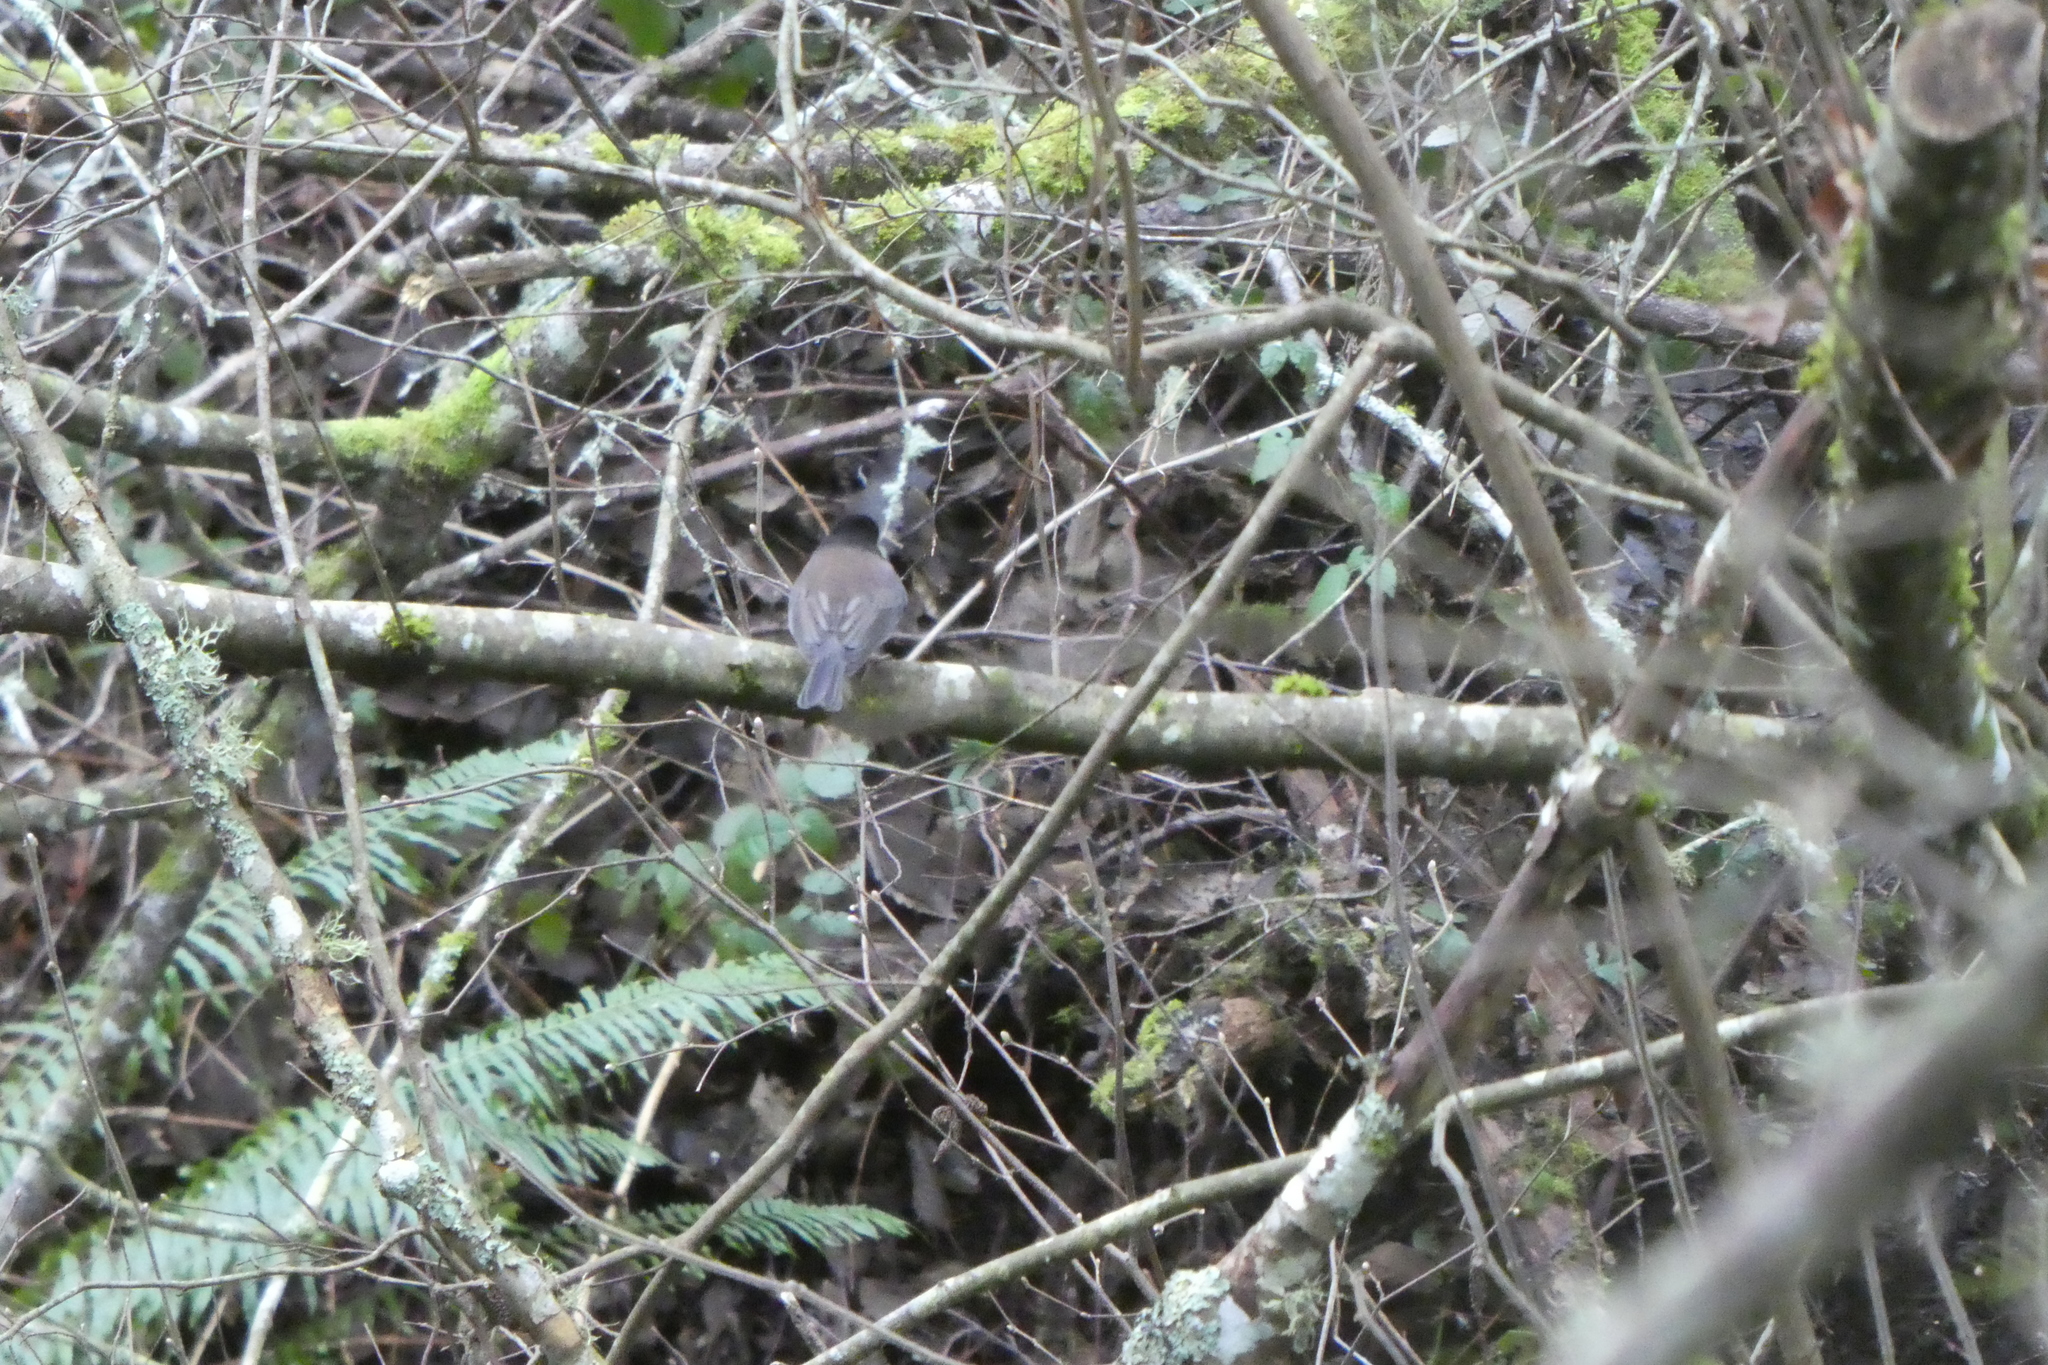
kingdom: Animalia
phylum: Chordata
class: Aves
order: Passeriformes
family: Passerellidae
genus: Junco
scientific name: Junco hyemalis
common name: Dark-eyed junco
